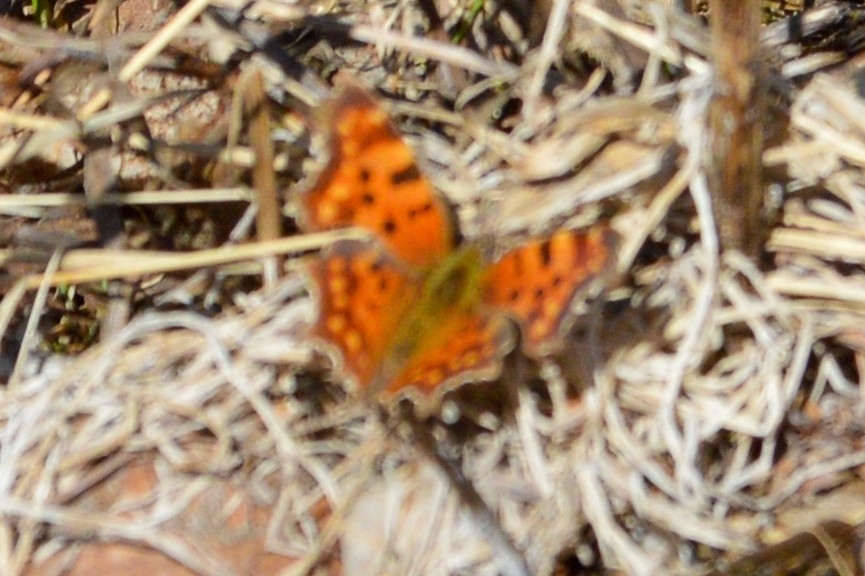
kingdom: Animalia
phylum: Arthropoda
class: Insecta
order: Lepidoptera
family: Nymphalidae
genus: Polygonia
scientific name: Polygonia c-album
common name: Comma
